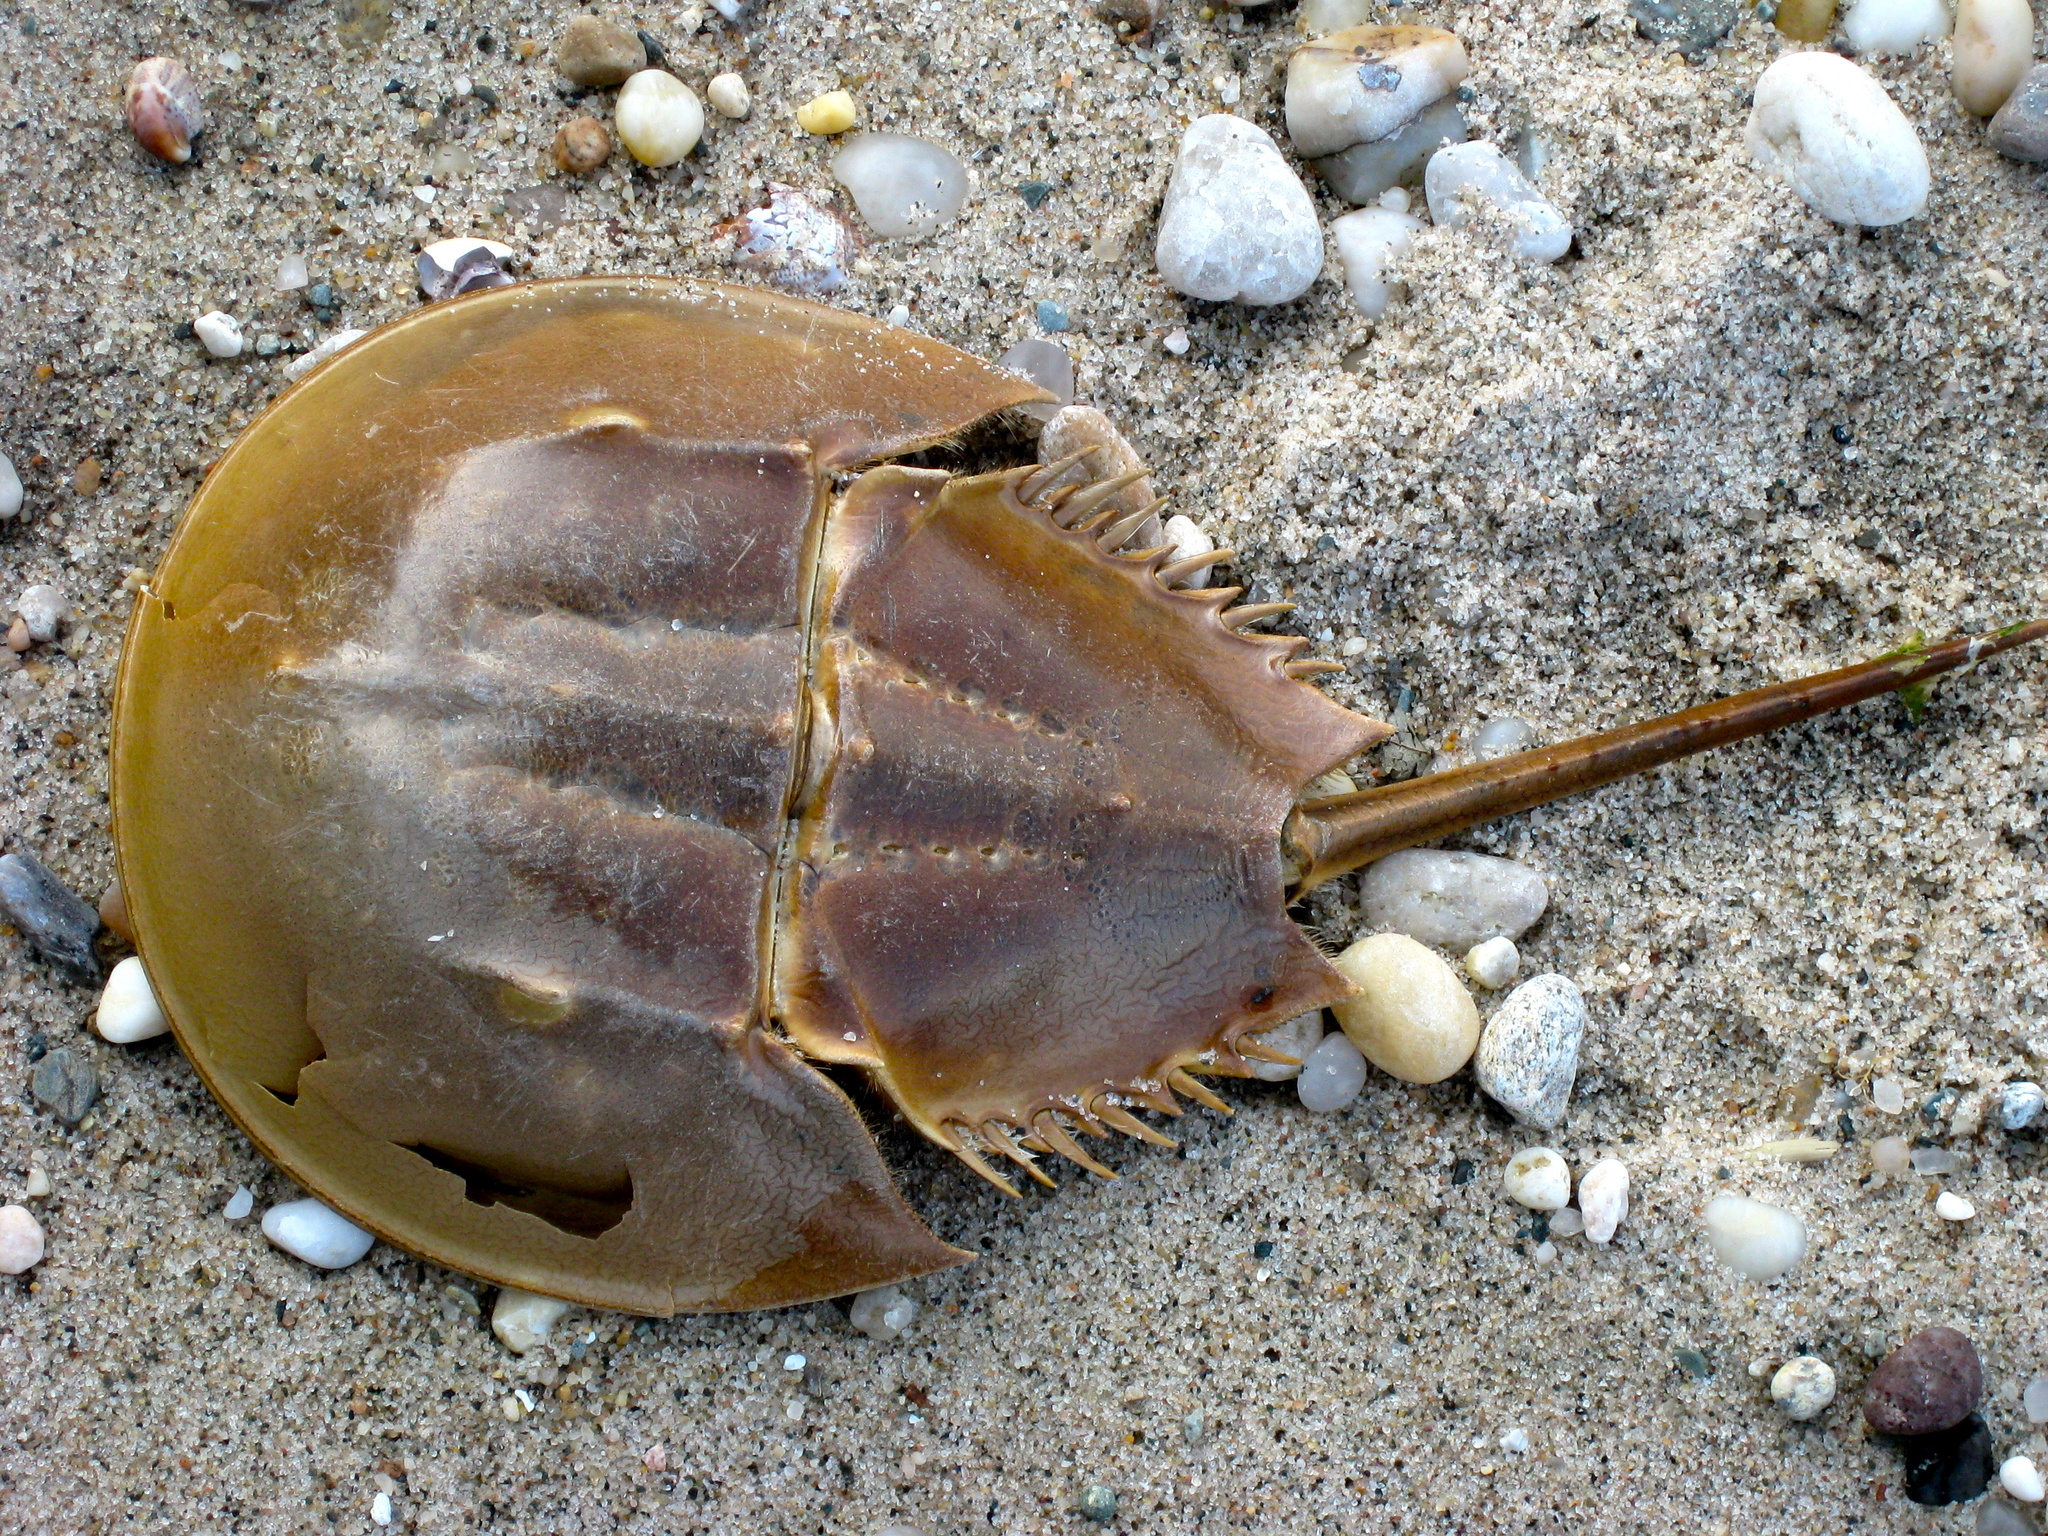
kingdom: Animalia
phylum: Arthropoda
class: Merostomata
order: Xiphosurida
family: Limulidae
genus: Limulus
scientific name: Limulus polyphemus
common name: Horseshoe crab
